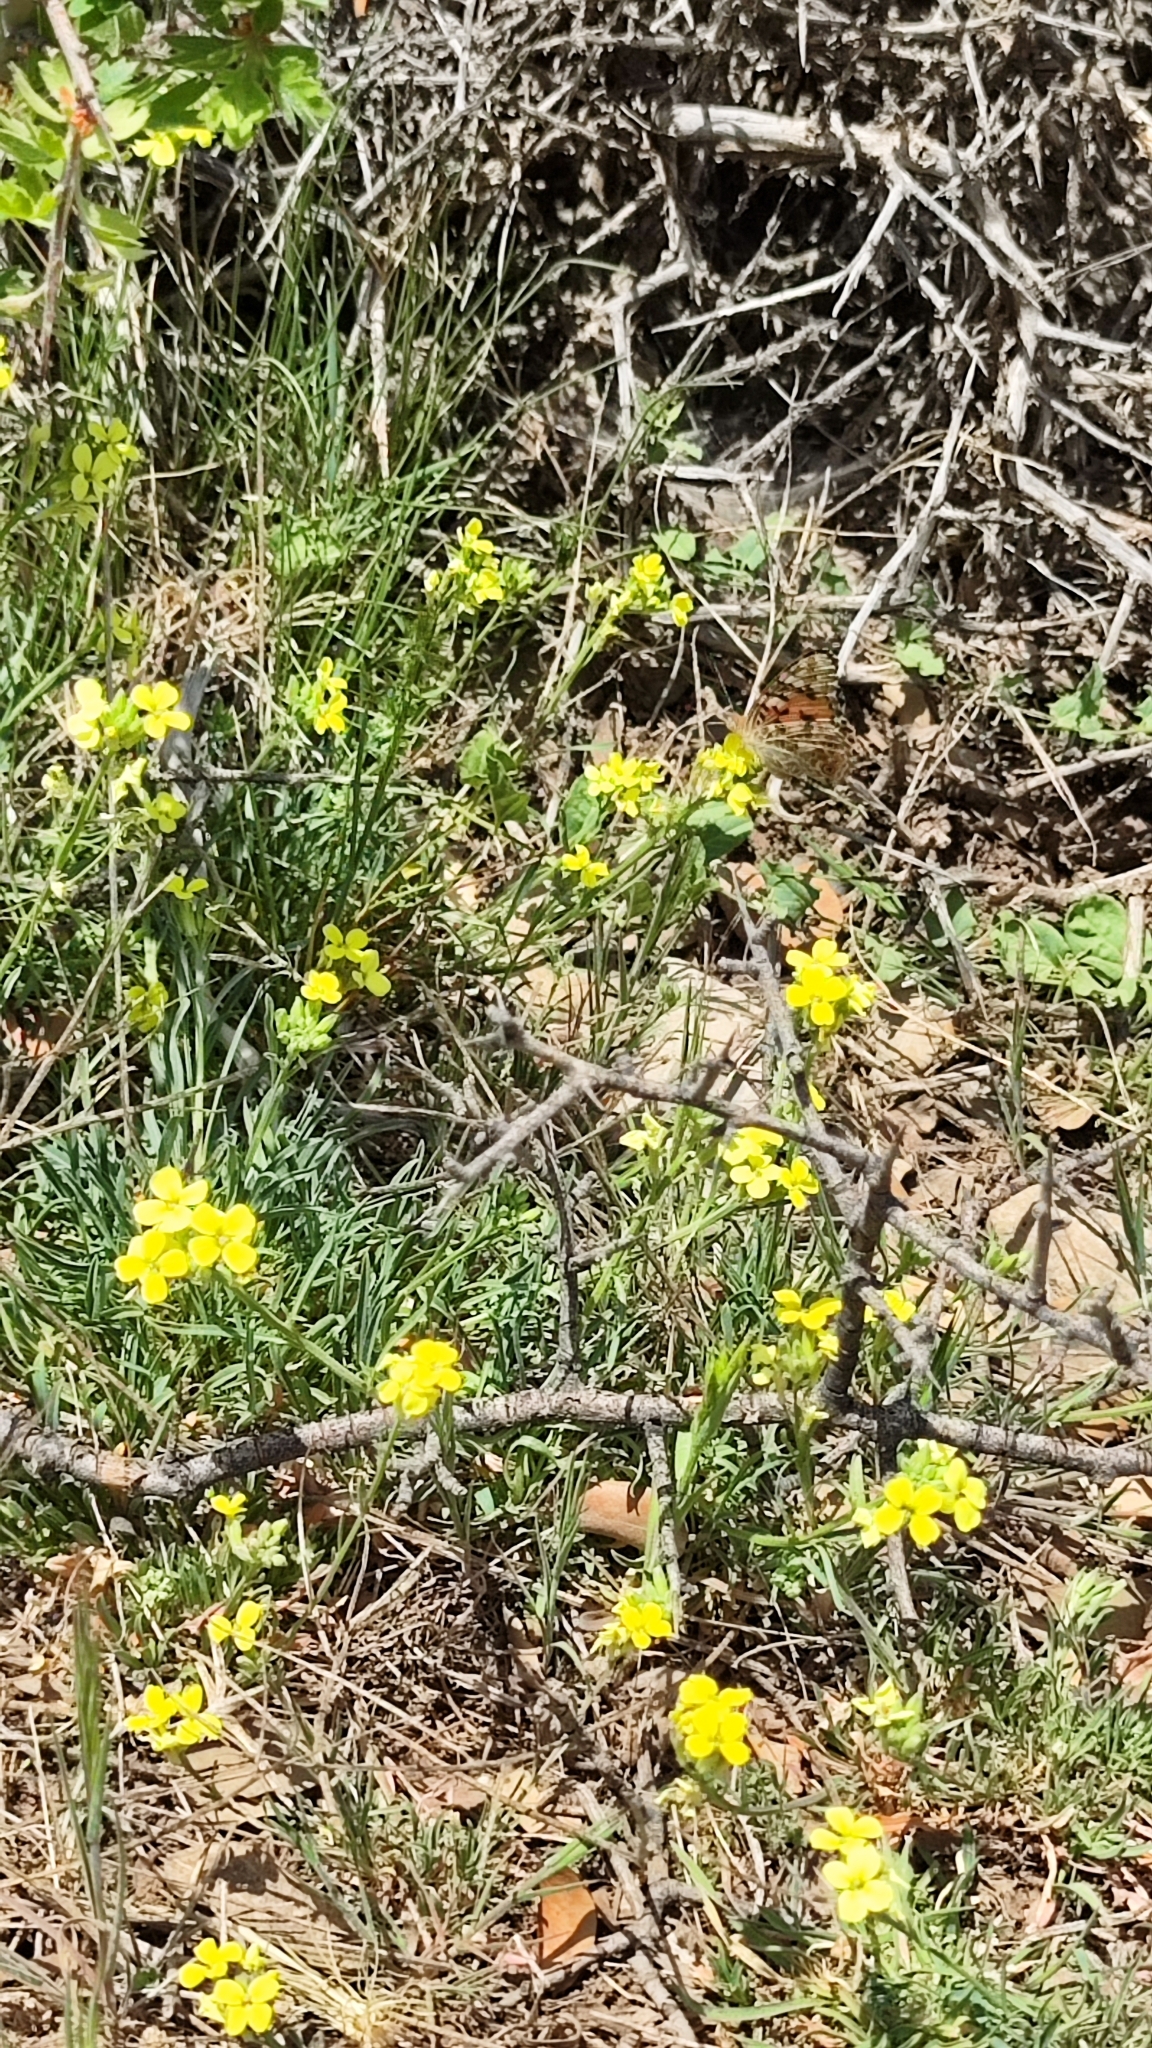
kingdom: Plantae
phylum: Tracheophyta
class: Magnoliopsida
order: Brassicales
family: Brassicaceae
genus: Erysimum
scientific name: Erysimum riphaeanum
